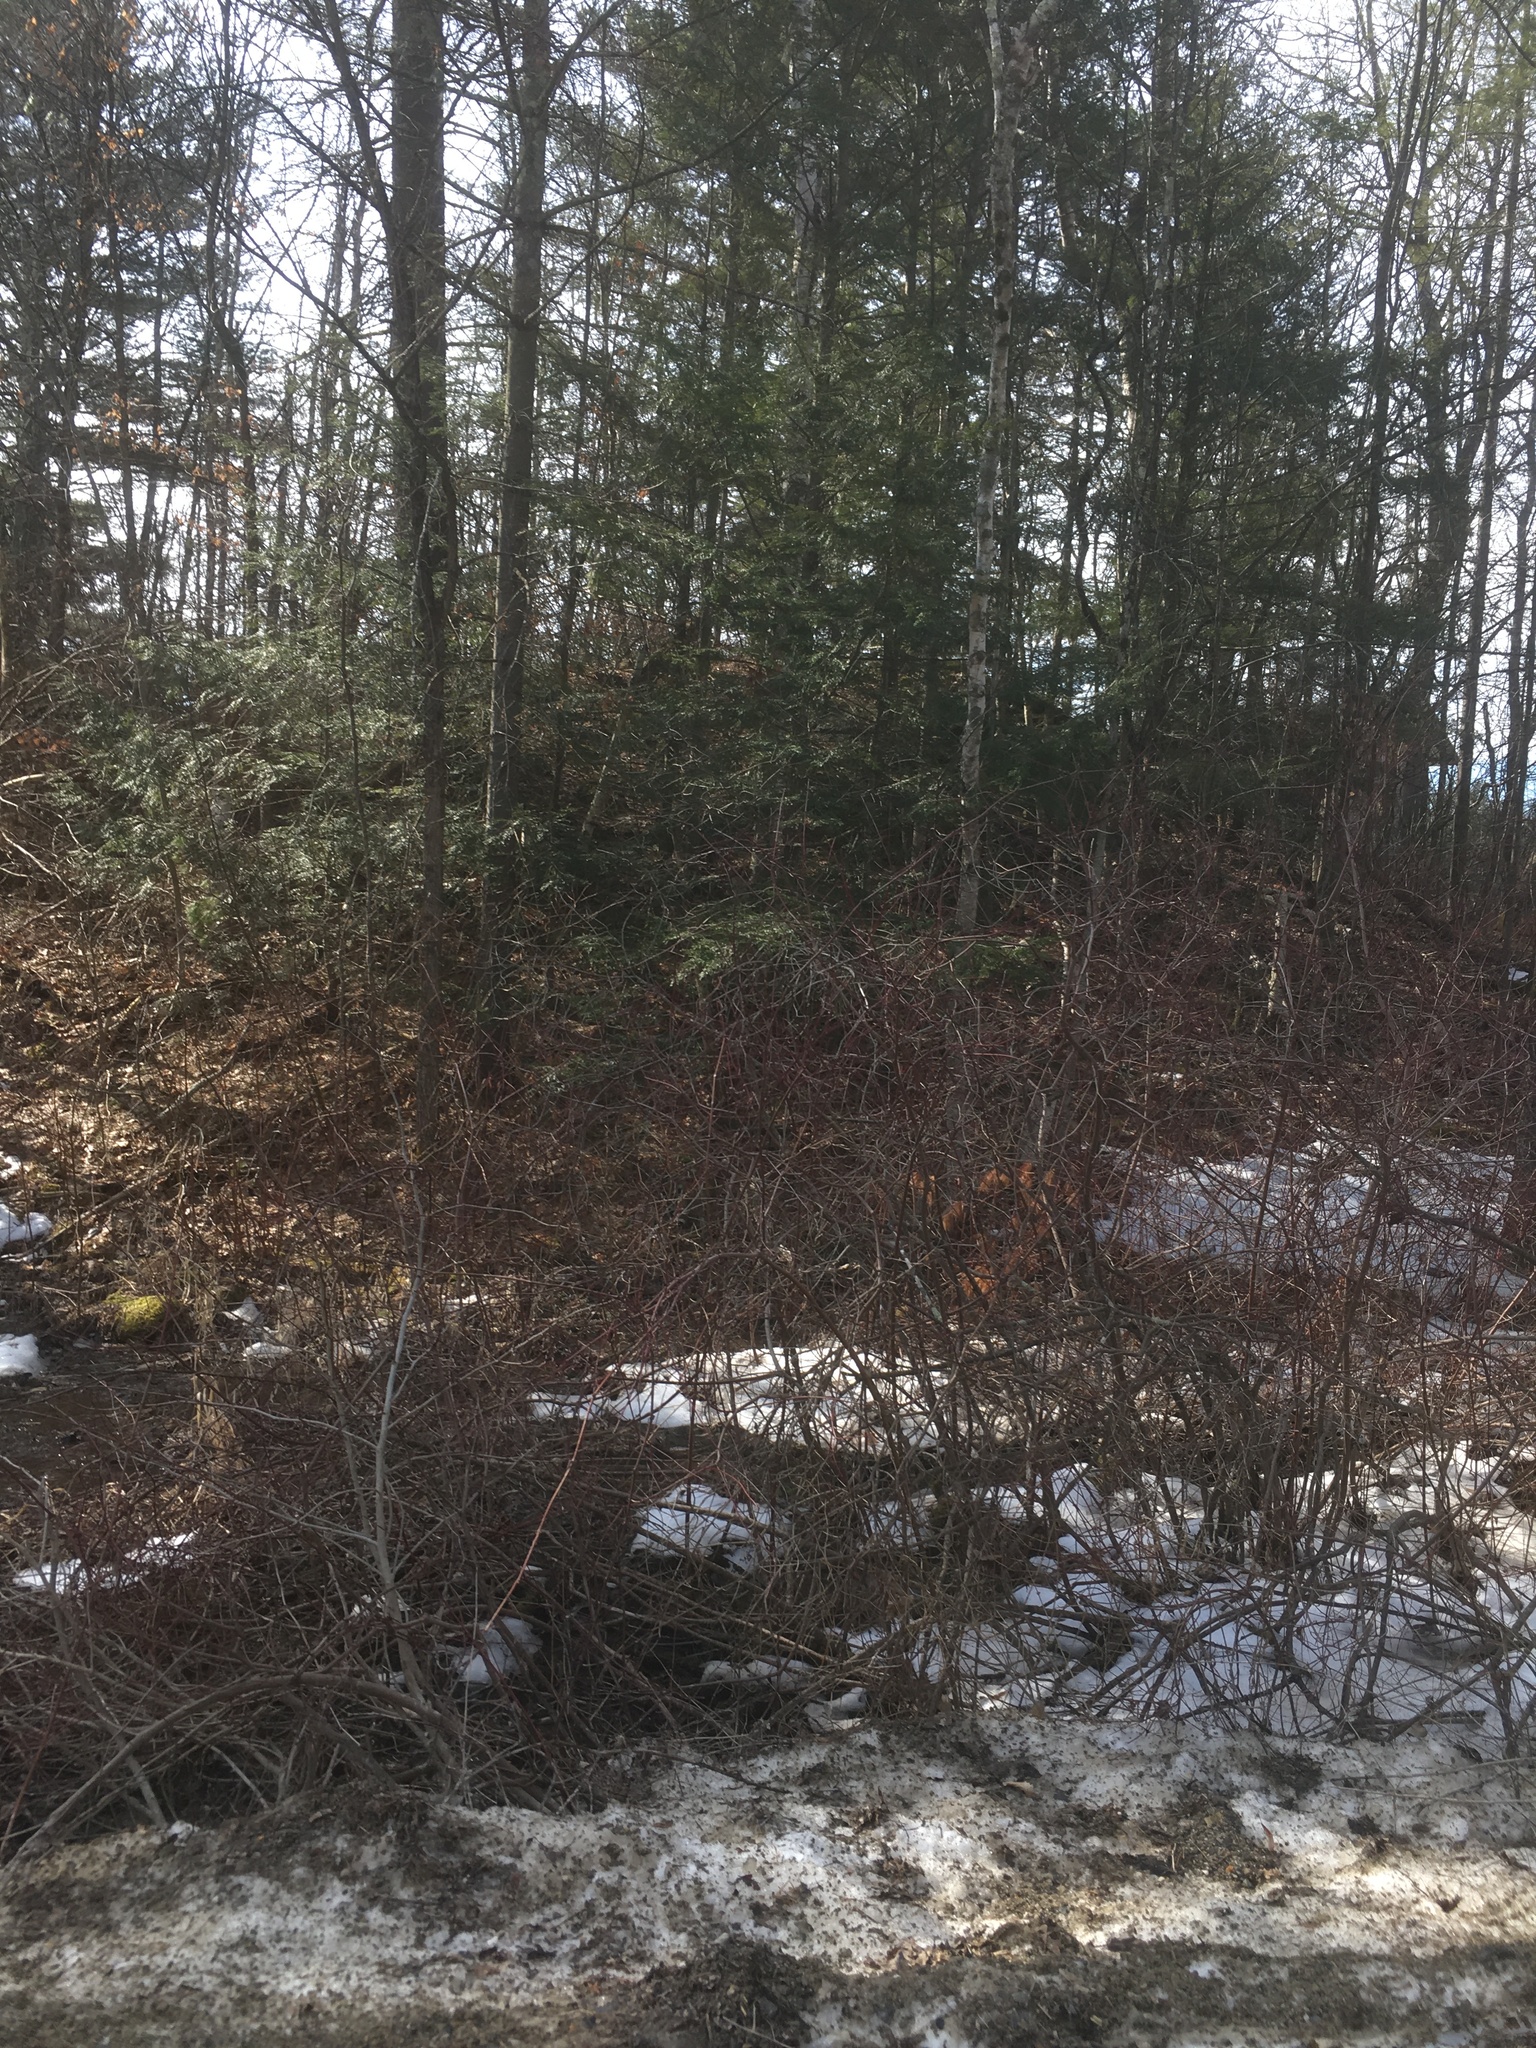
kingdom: Plantae
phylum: Tracheophyta
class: Pinopsida
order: Pinales
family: Pinaceae
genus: Tsuga
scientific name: Tsuga canadensis
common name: Eastern hemlock
